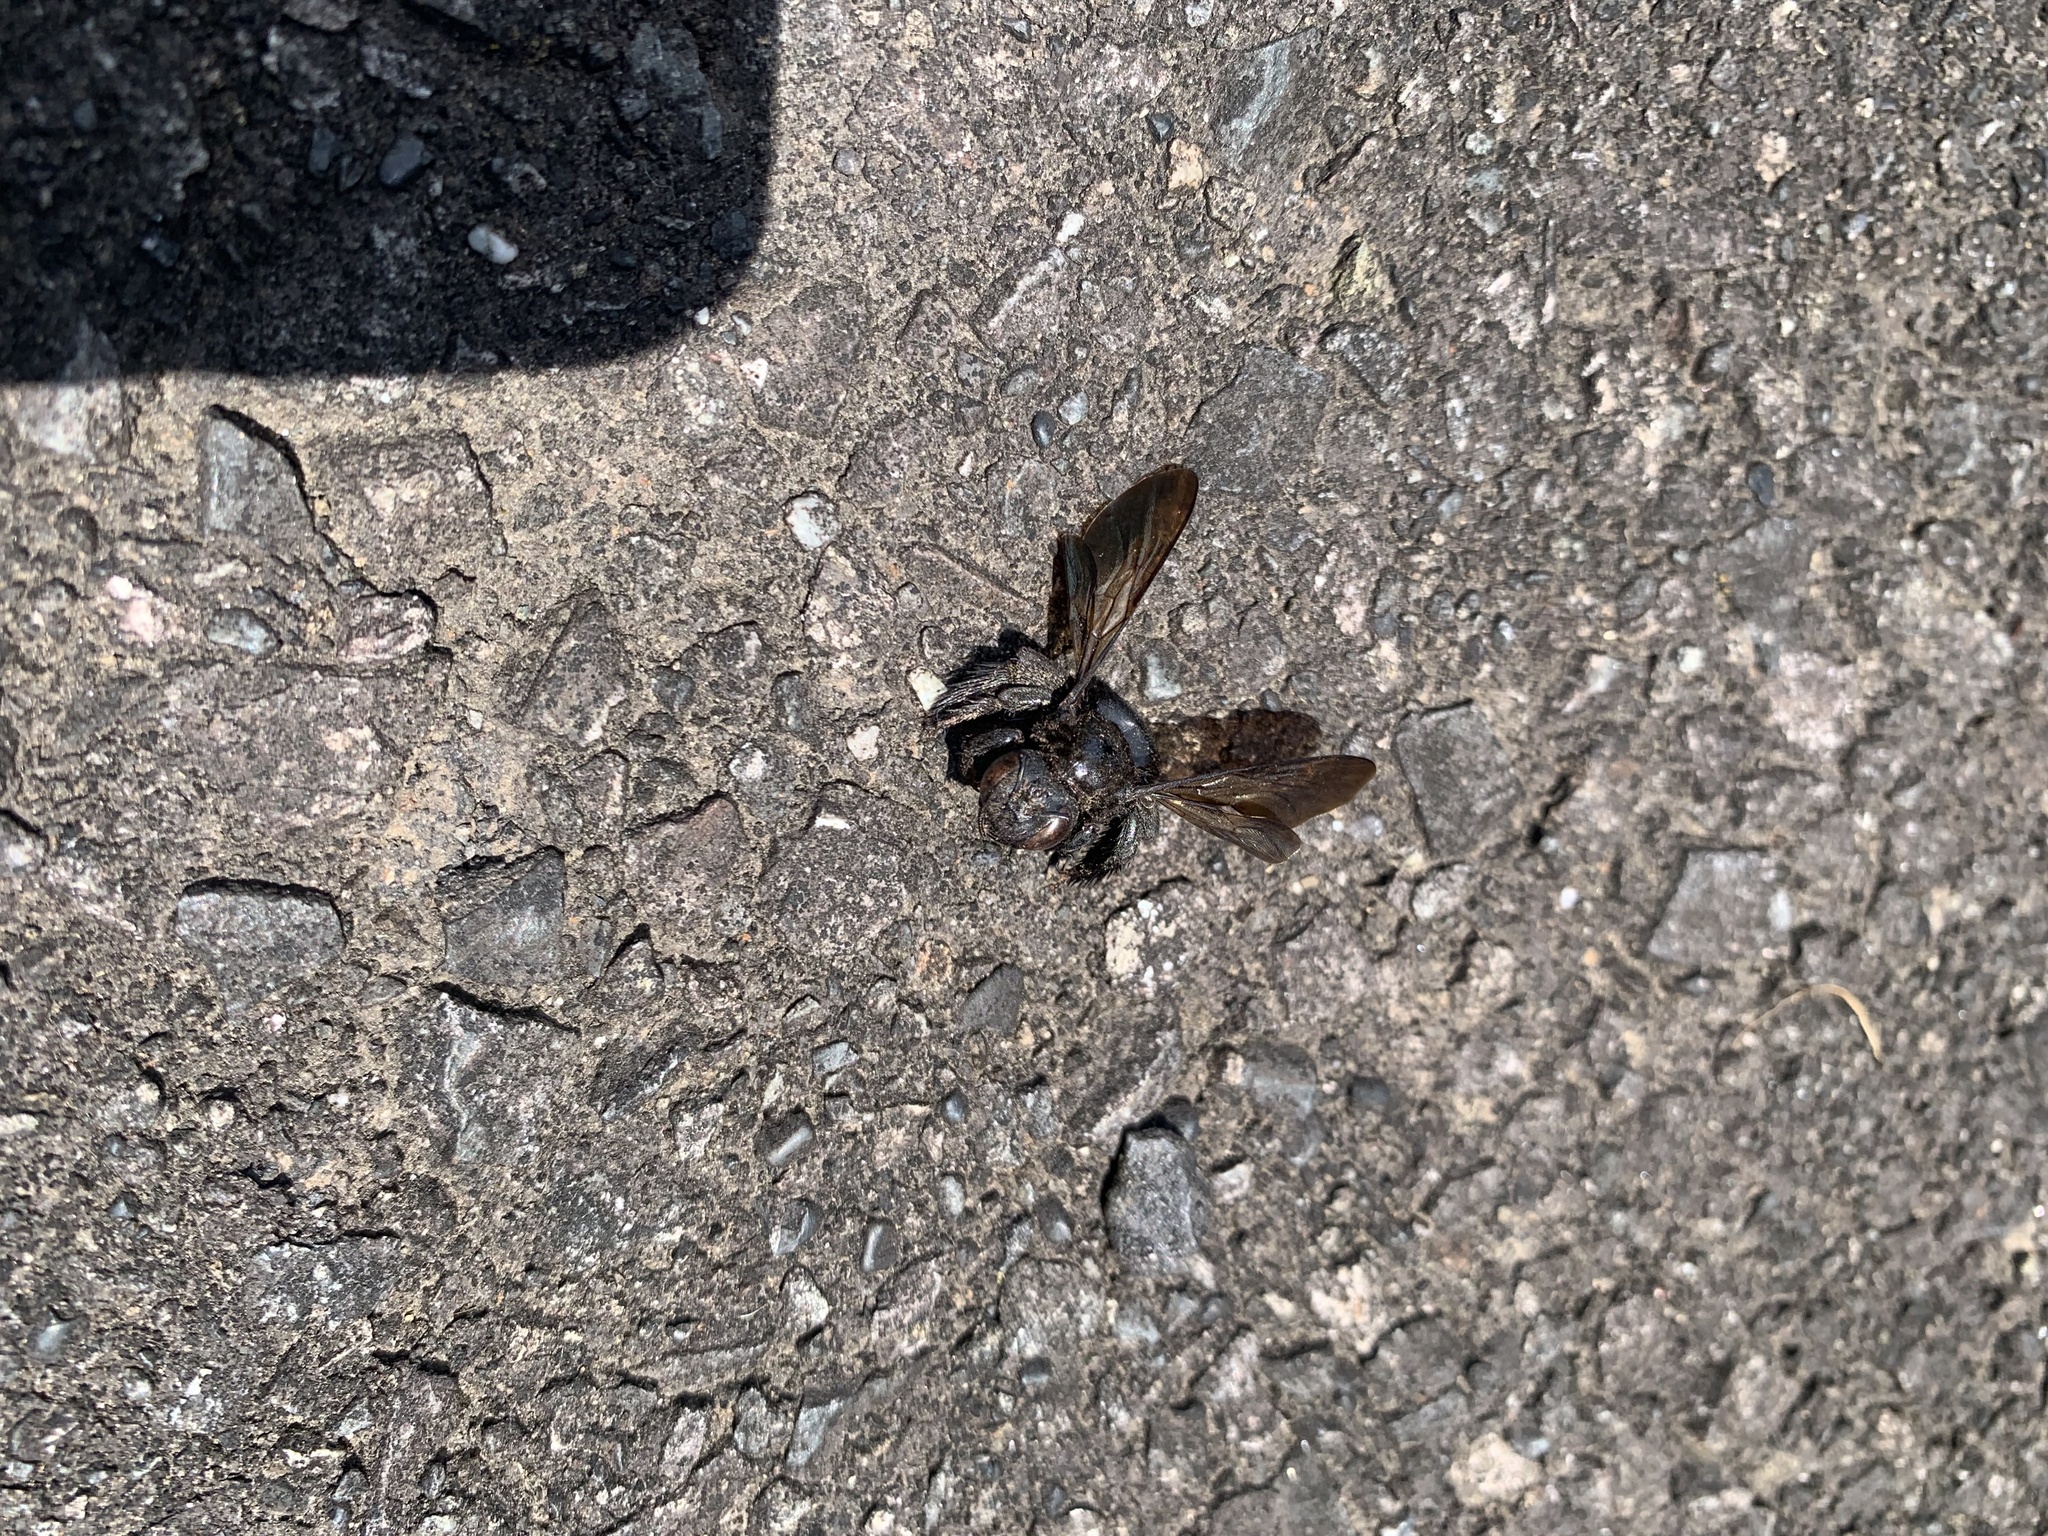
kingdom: Animalia
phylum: Arthropoda
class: Insecta
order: Hymenoptera
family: Apidae
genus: Xylocopa
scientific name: Xylocopa tranquebarorum
